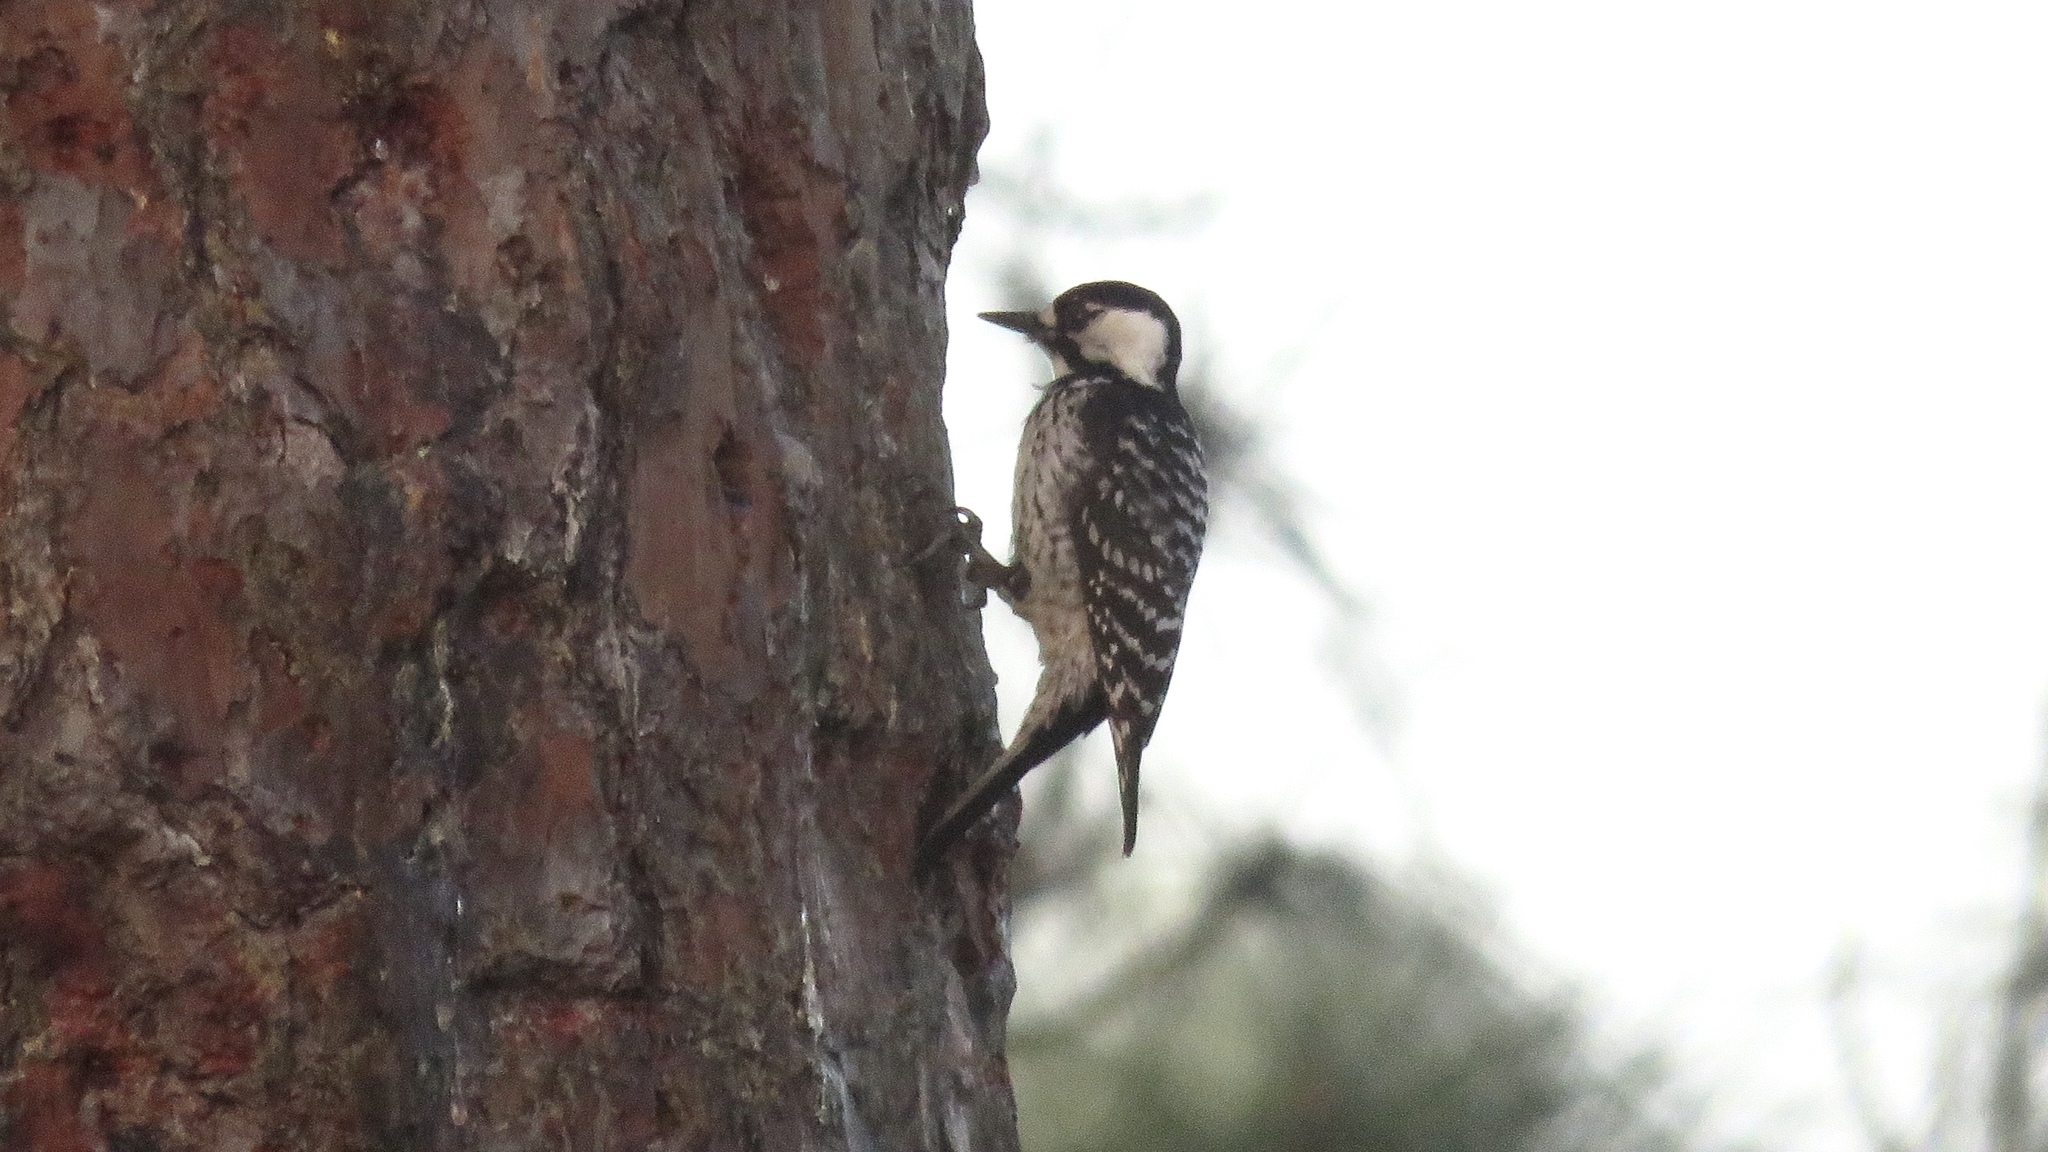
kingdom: Animalia
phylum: Chordata
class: Aves
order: Piciformes
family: Picidae
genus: Leuconotopicus
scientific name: Leuconotopicus borealis
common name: Red-cockaded woodpecker
